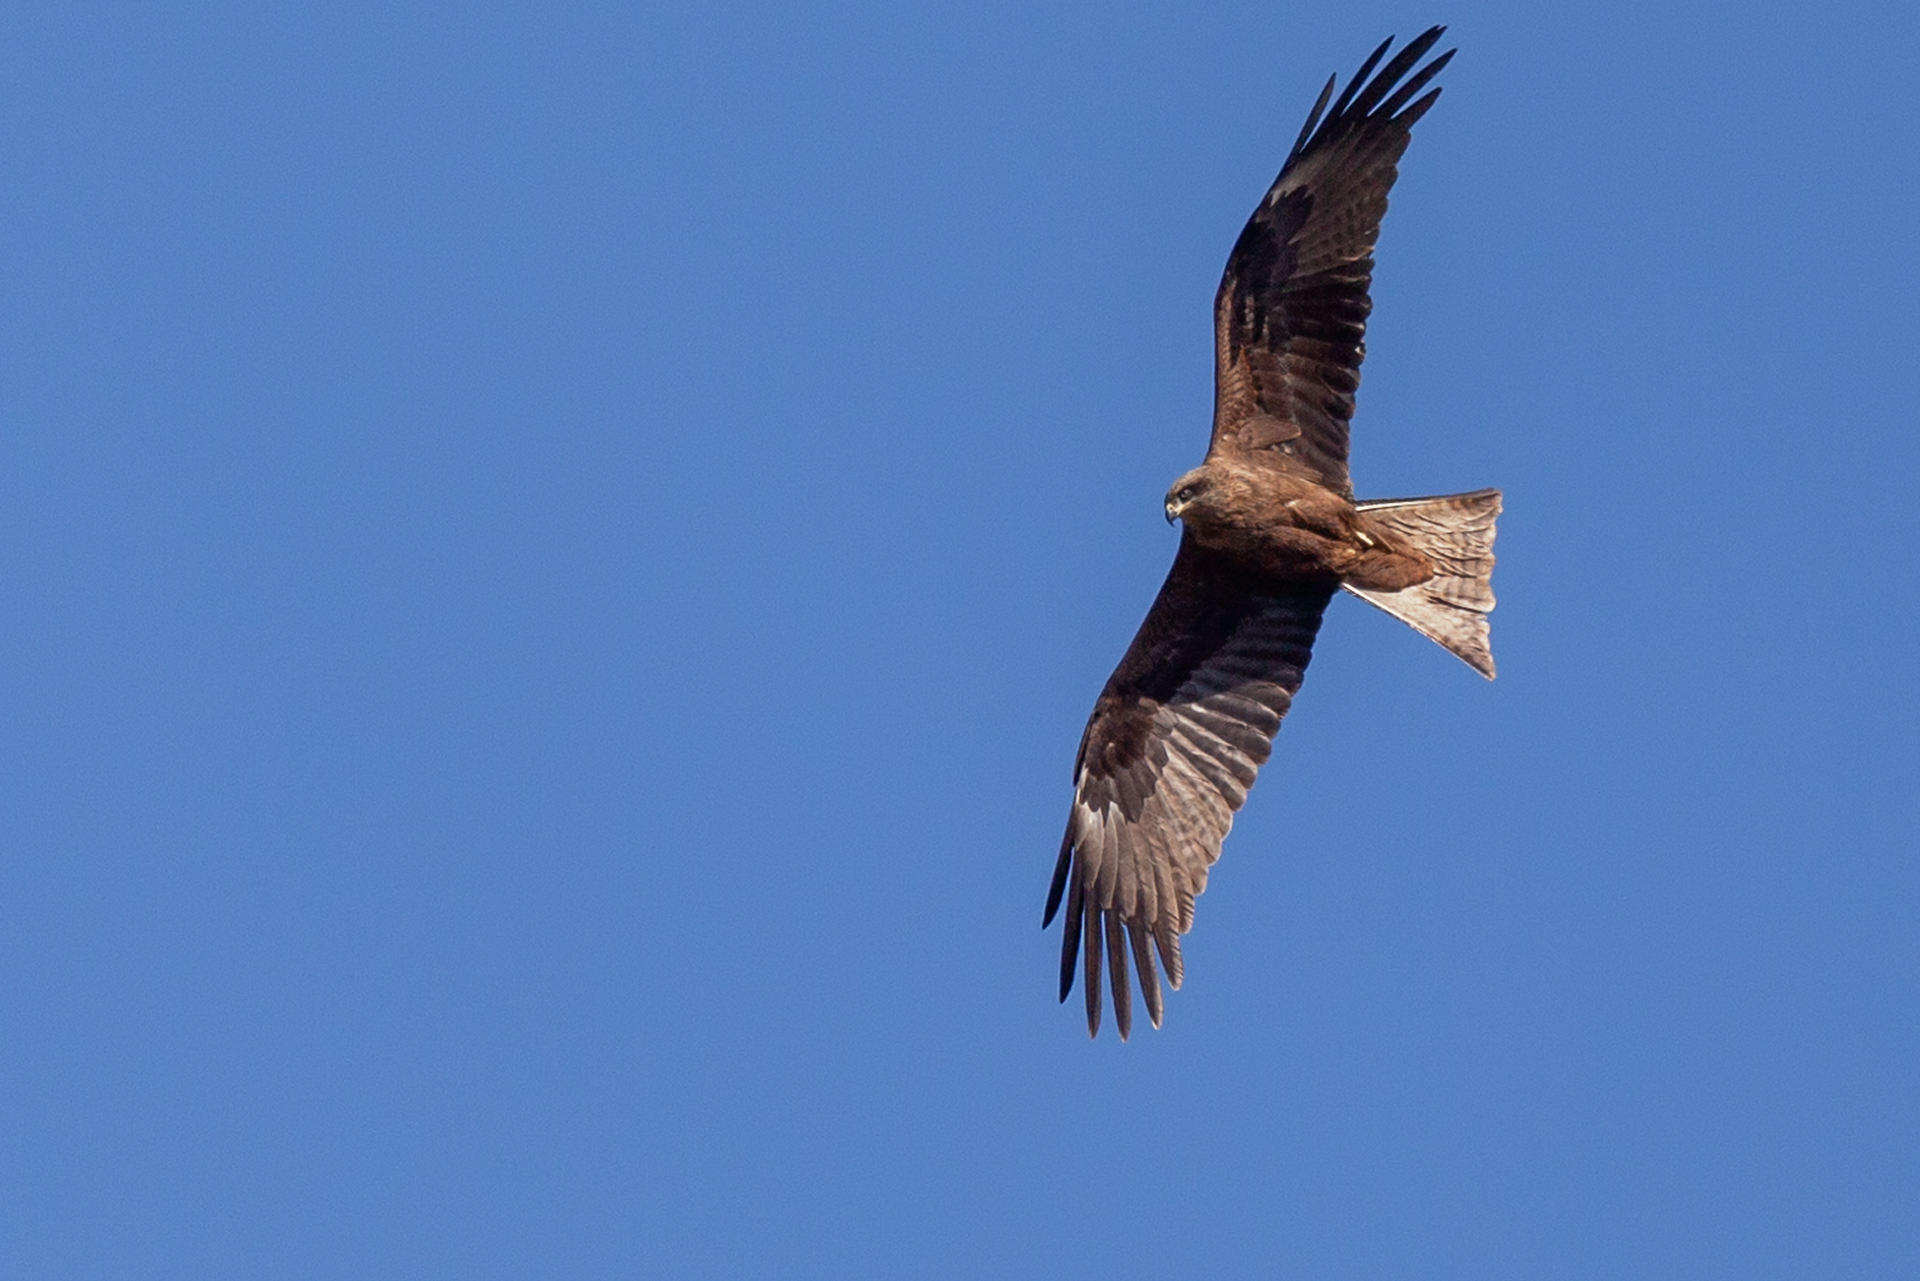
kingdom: Animalia
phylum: Chordata
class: Aves
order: Accipitriformes
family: Accipitridae
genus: Milvus
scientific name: Milvus migrans
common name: Black kite
